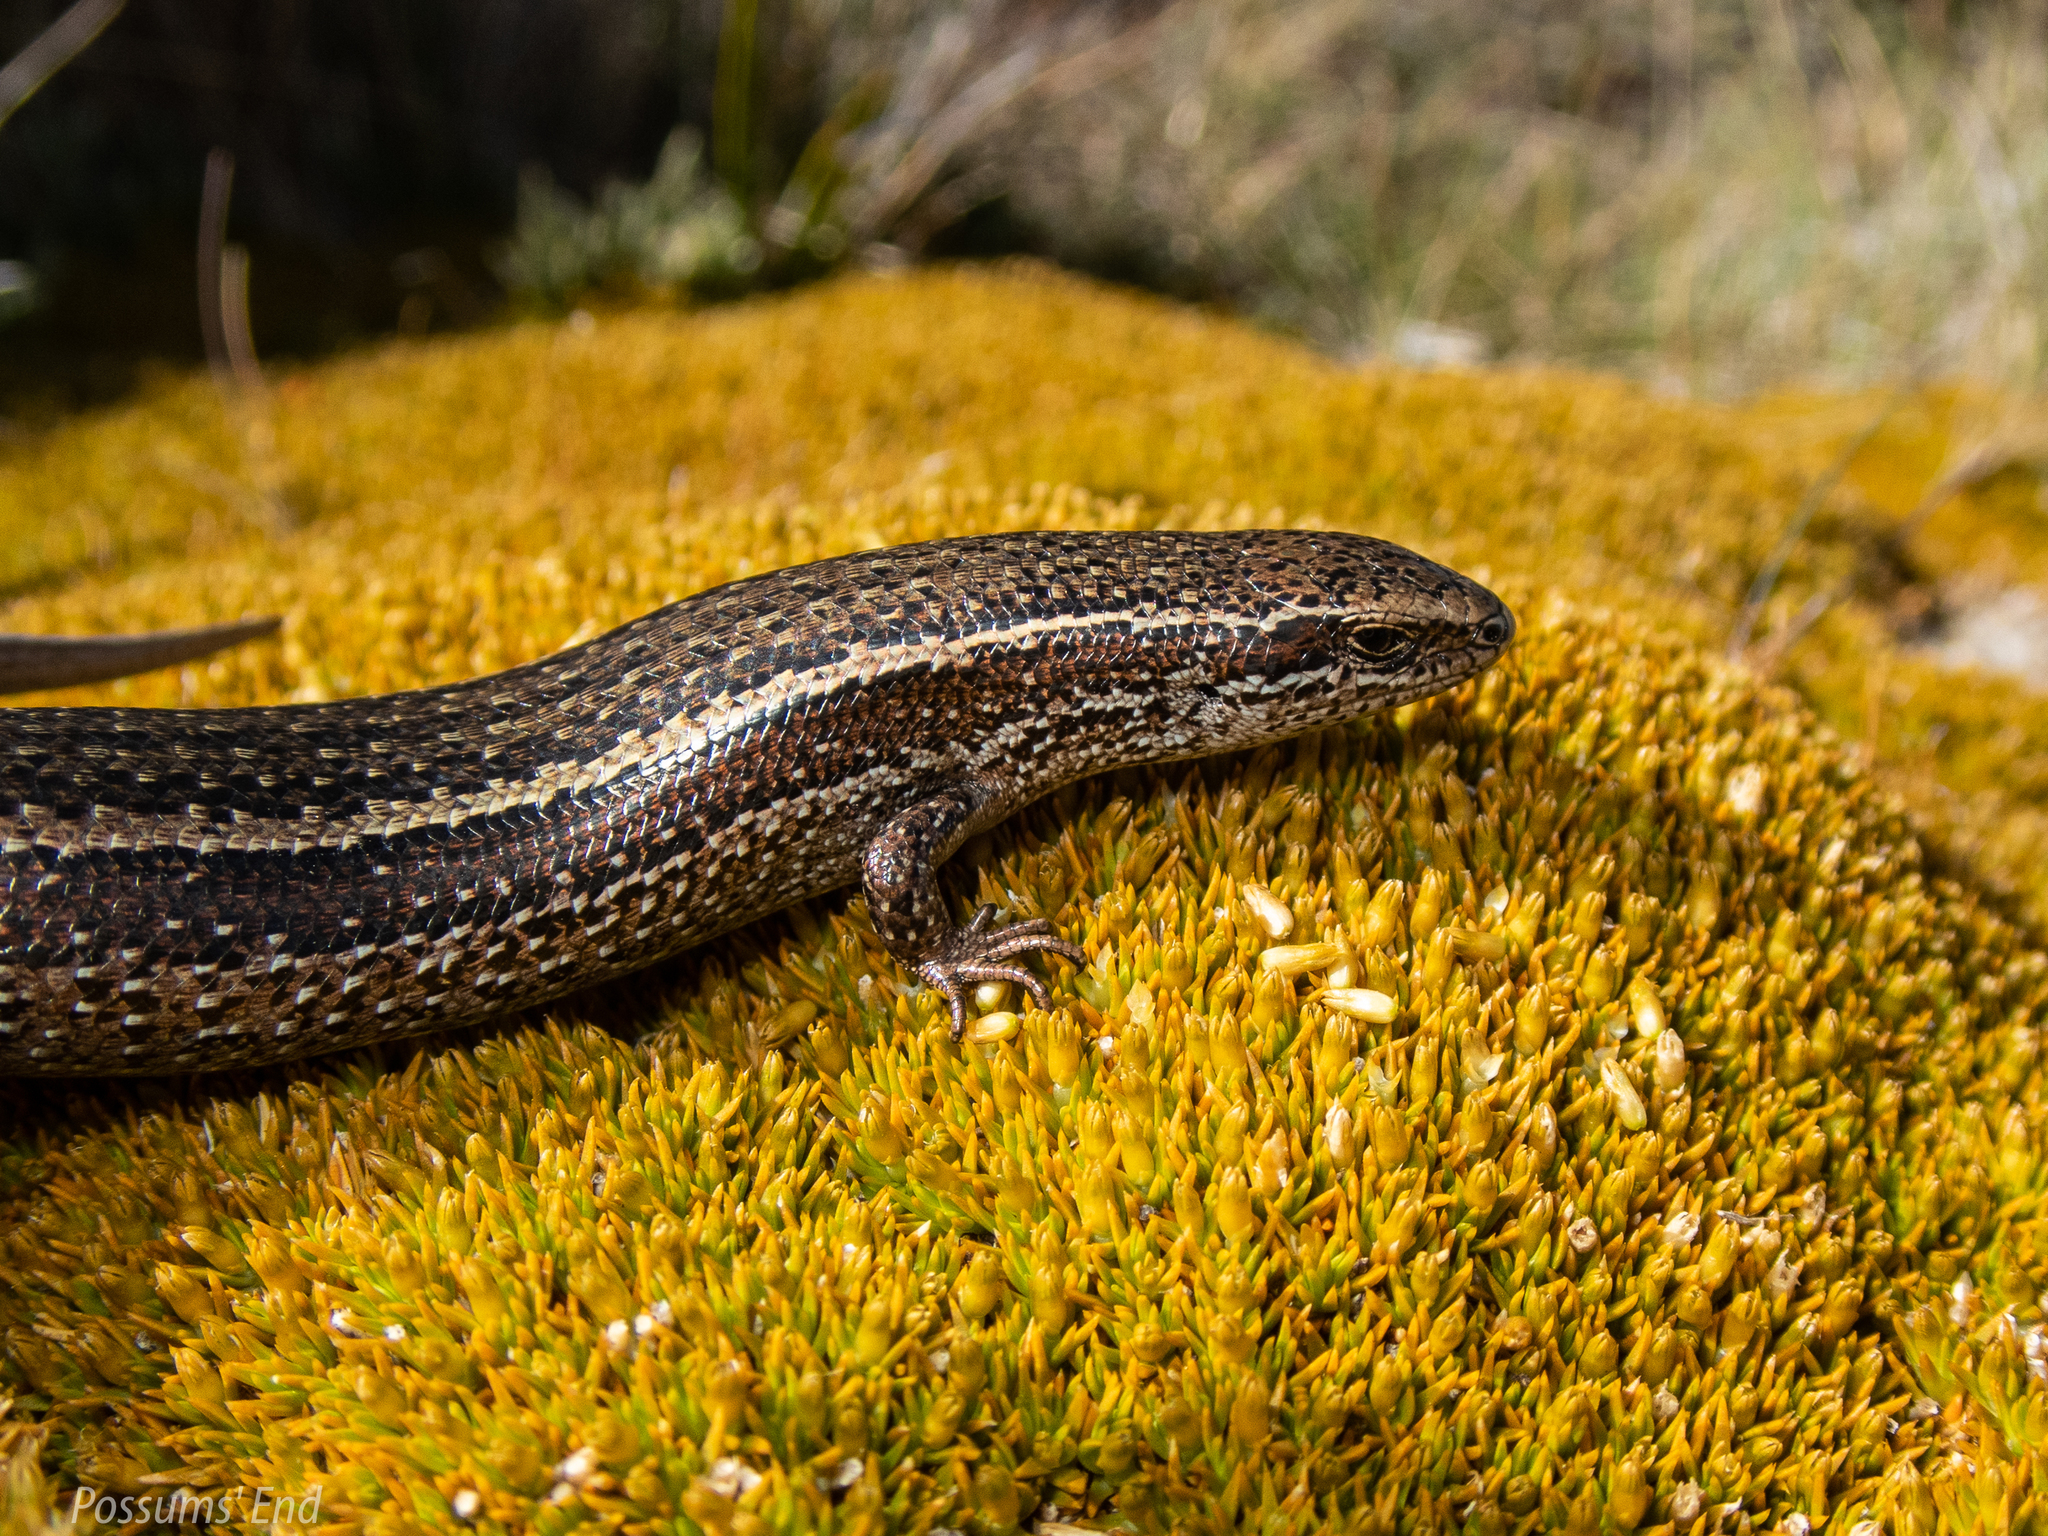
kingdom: Animalia
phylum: Chordata
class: Squamata
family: Scincidae
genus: Oligosoma
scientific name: Oligosoma burganae
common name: Burgan skink
